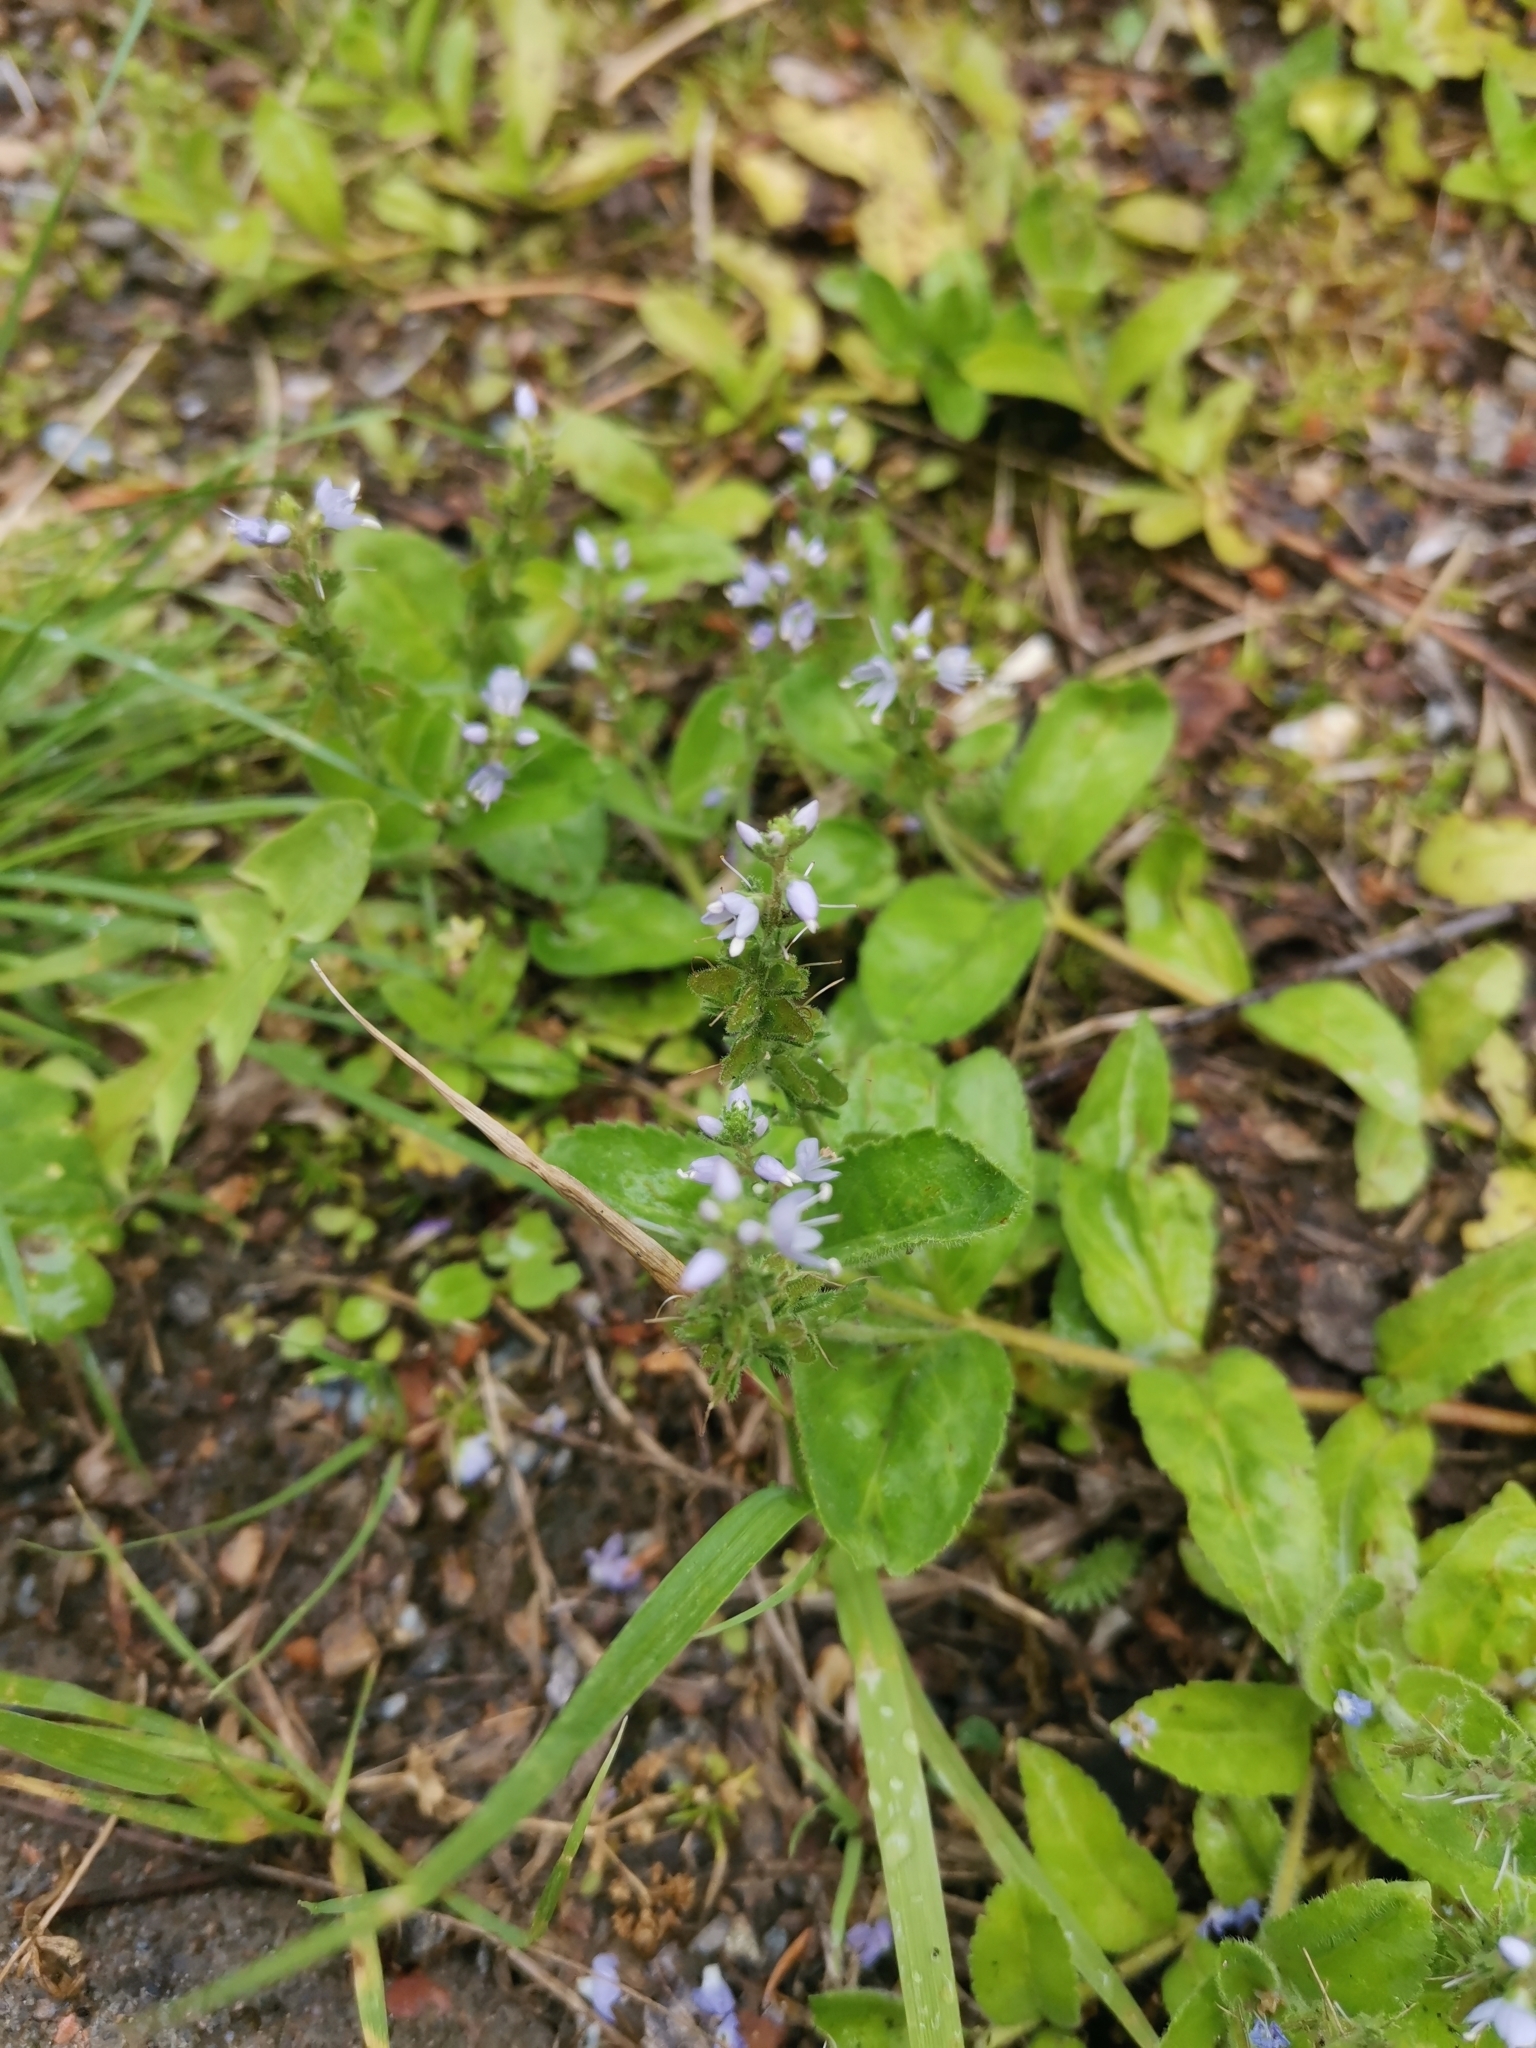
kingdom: Plantae
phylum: Tracheophyta
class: Magnoliopsida
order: Lamiales
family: Plantaginaceae
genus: Veronica
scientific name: Veronica officinalis
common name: Common speedwell
